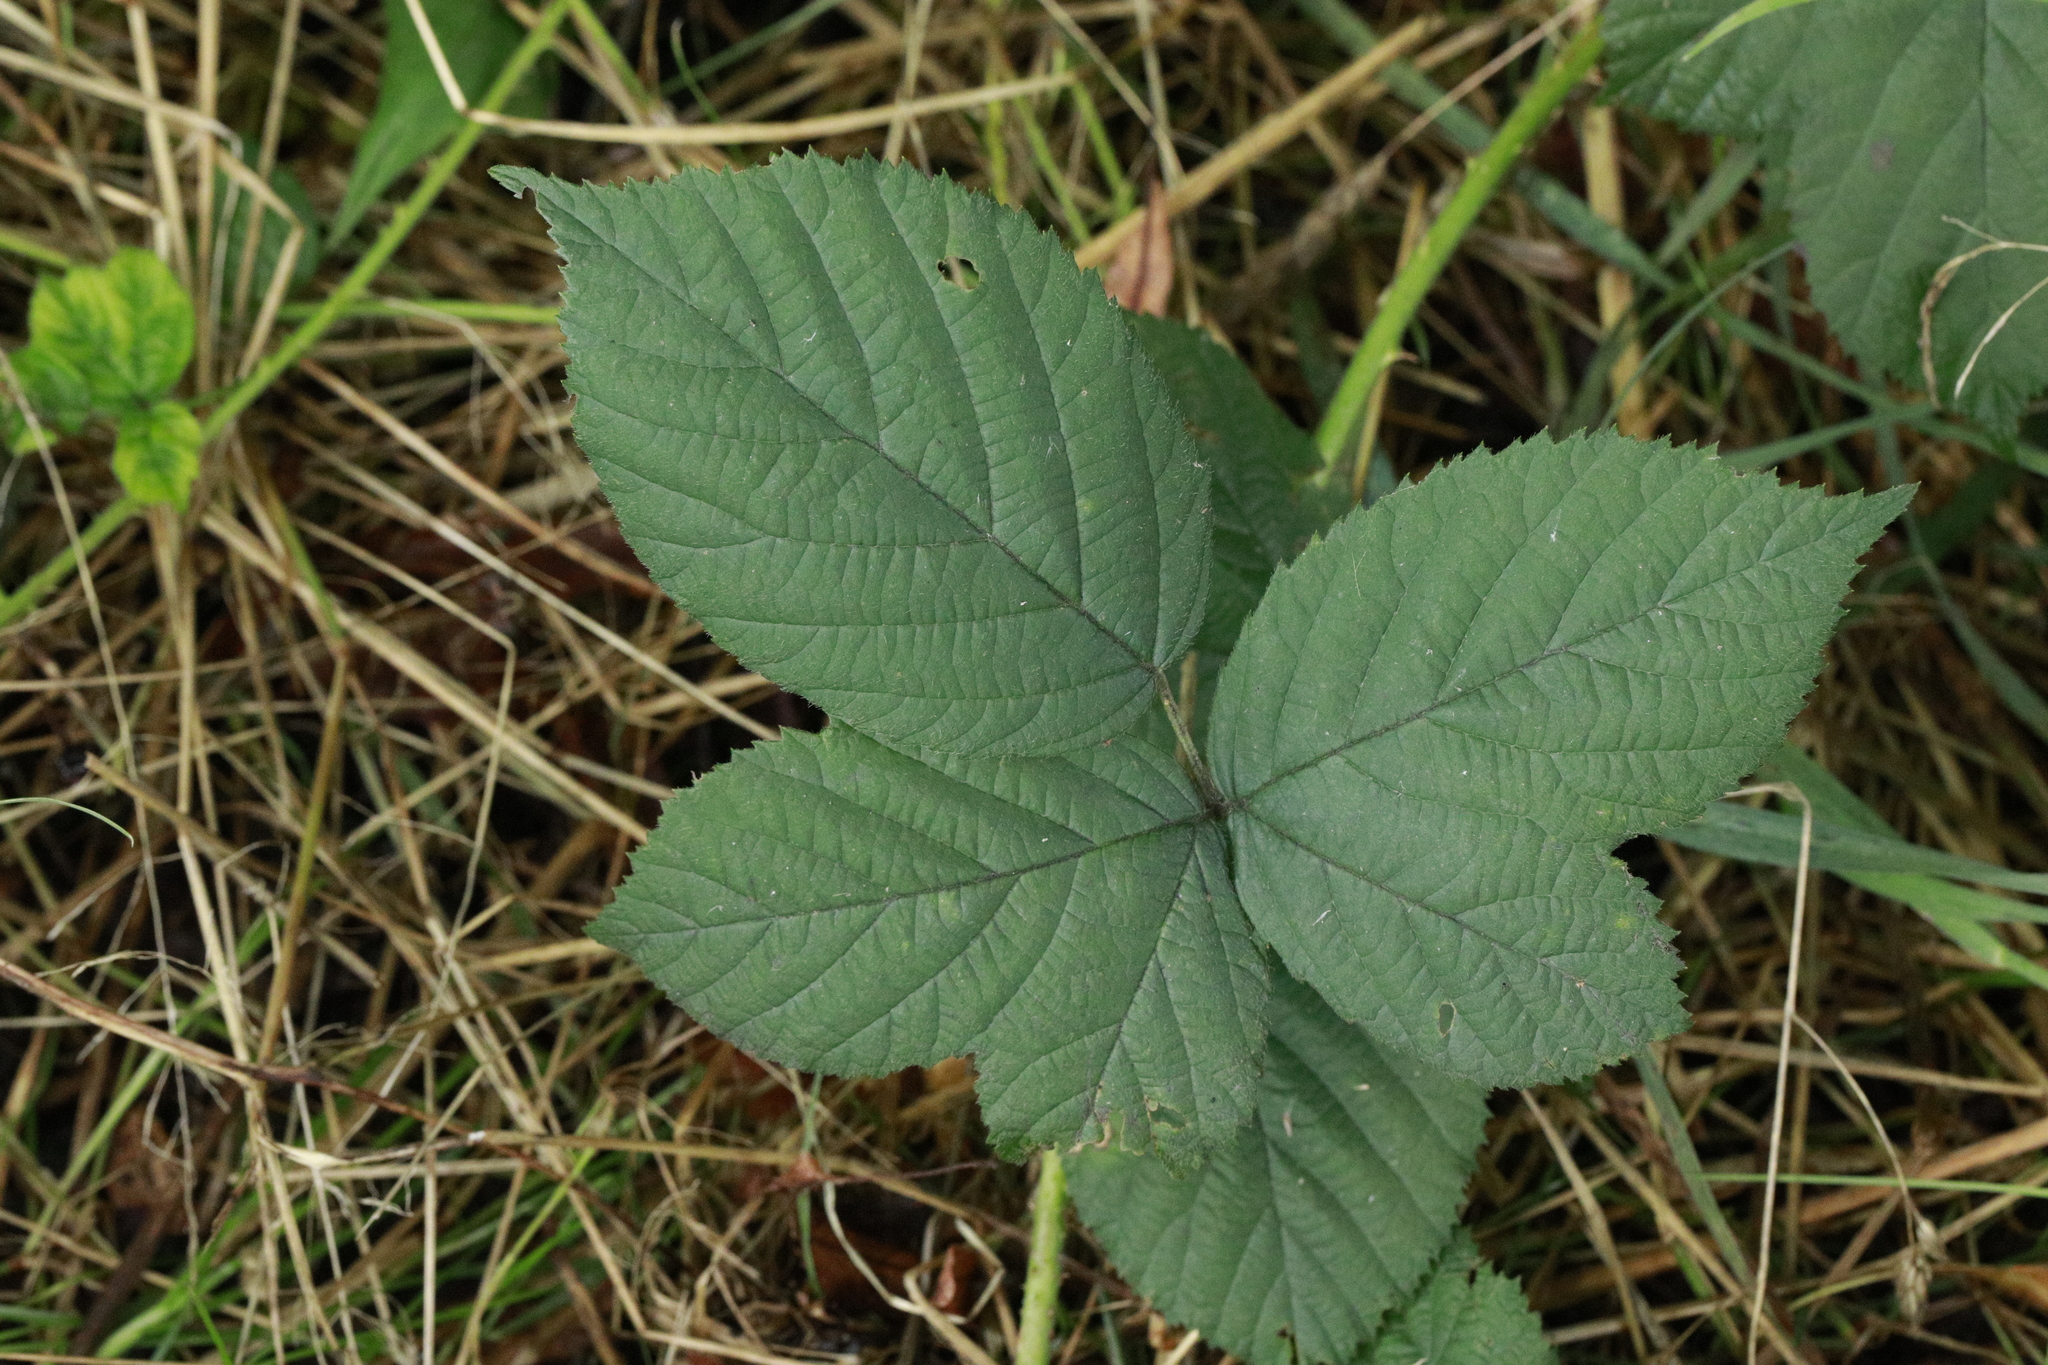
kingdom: Plantae
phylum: Tracheophyta
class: Magnoliopsida
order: Rosales
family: Rosaceae
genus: Rubus
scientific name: Rubus horrefactus
